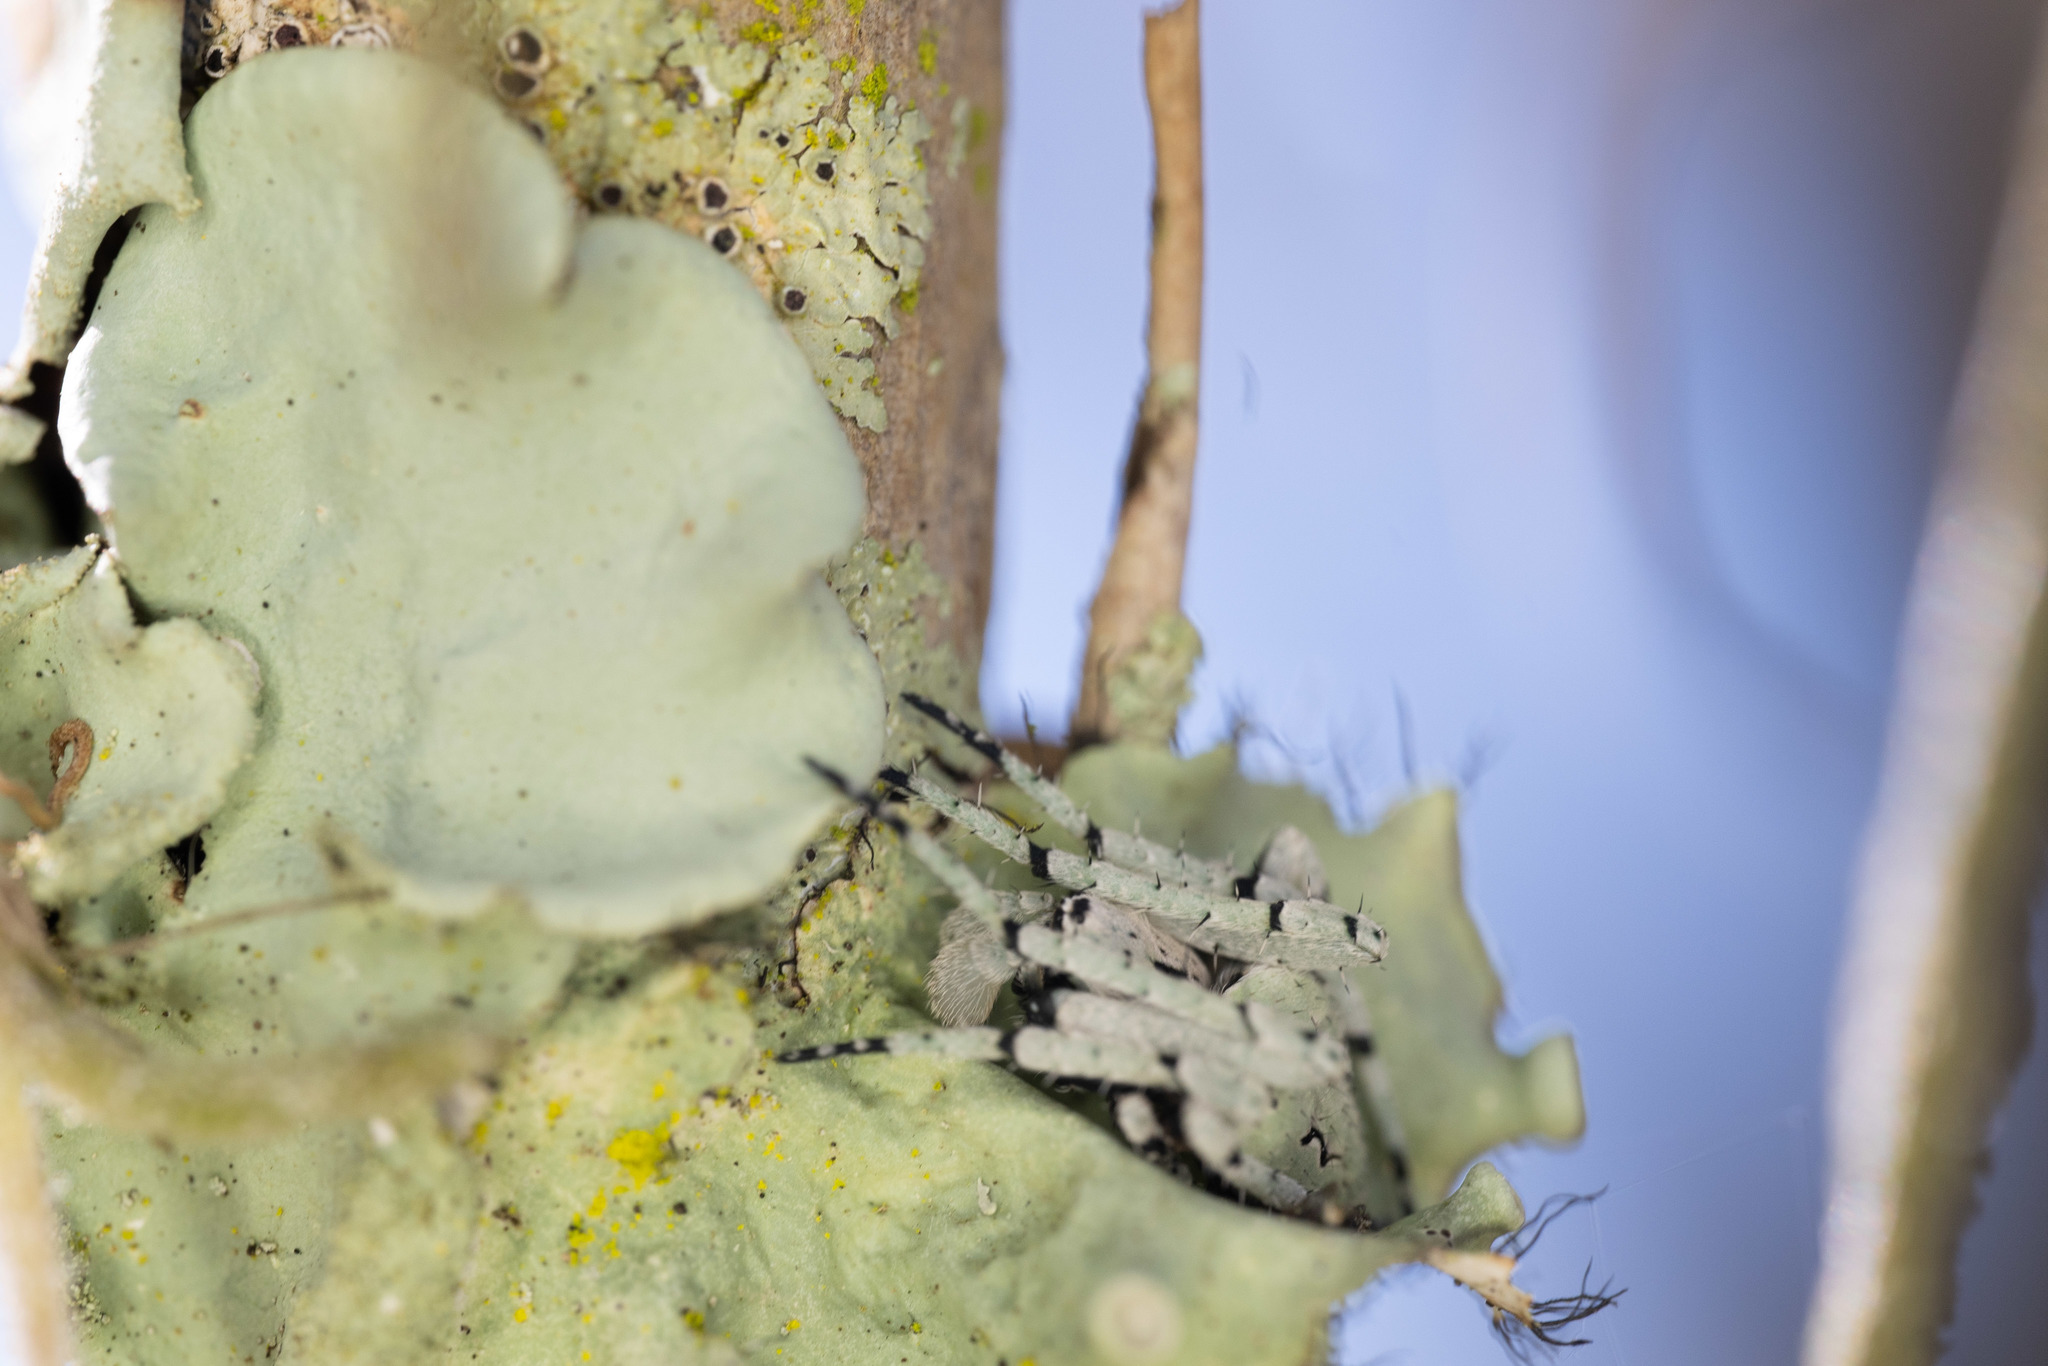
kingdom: Animalia
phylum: Arthropoda
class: Arachnida
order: Araneae
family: Araneidae
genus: Eustala
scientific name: Eustala anastera
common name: Orb weavers
